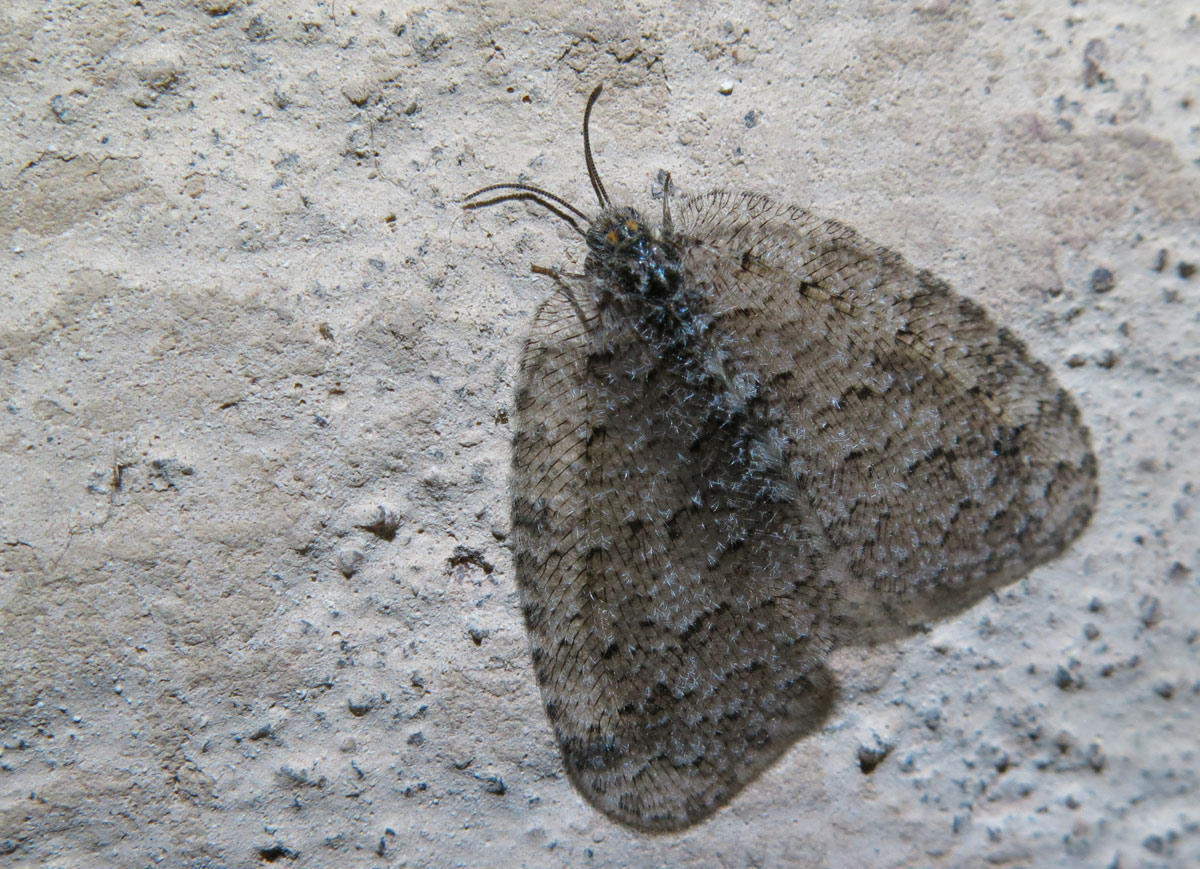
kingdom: Animalia
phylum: Arthropoda
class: Insecta
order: Neuroptera
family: Psychopsidae
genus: Silveira
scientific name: Silveira marshalli
